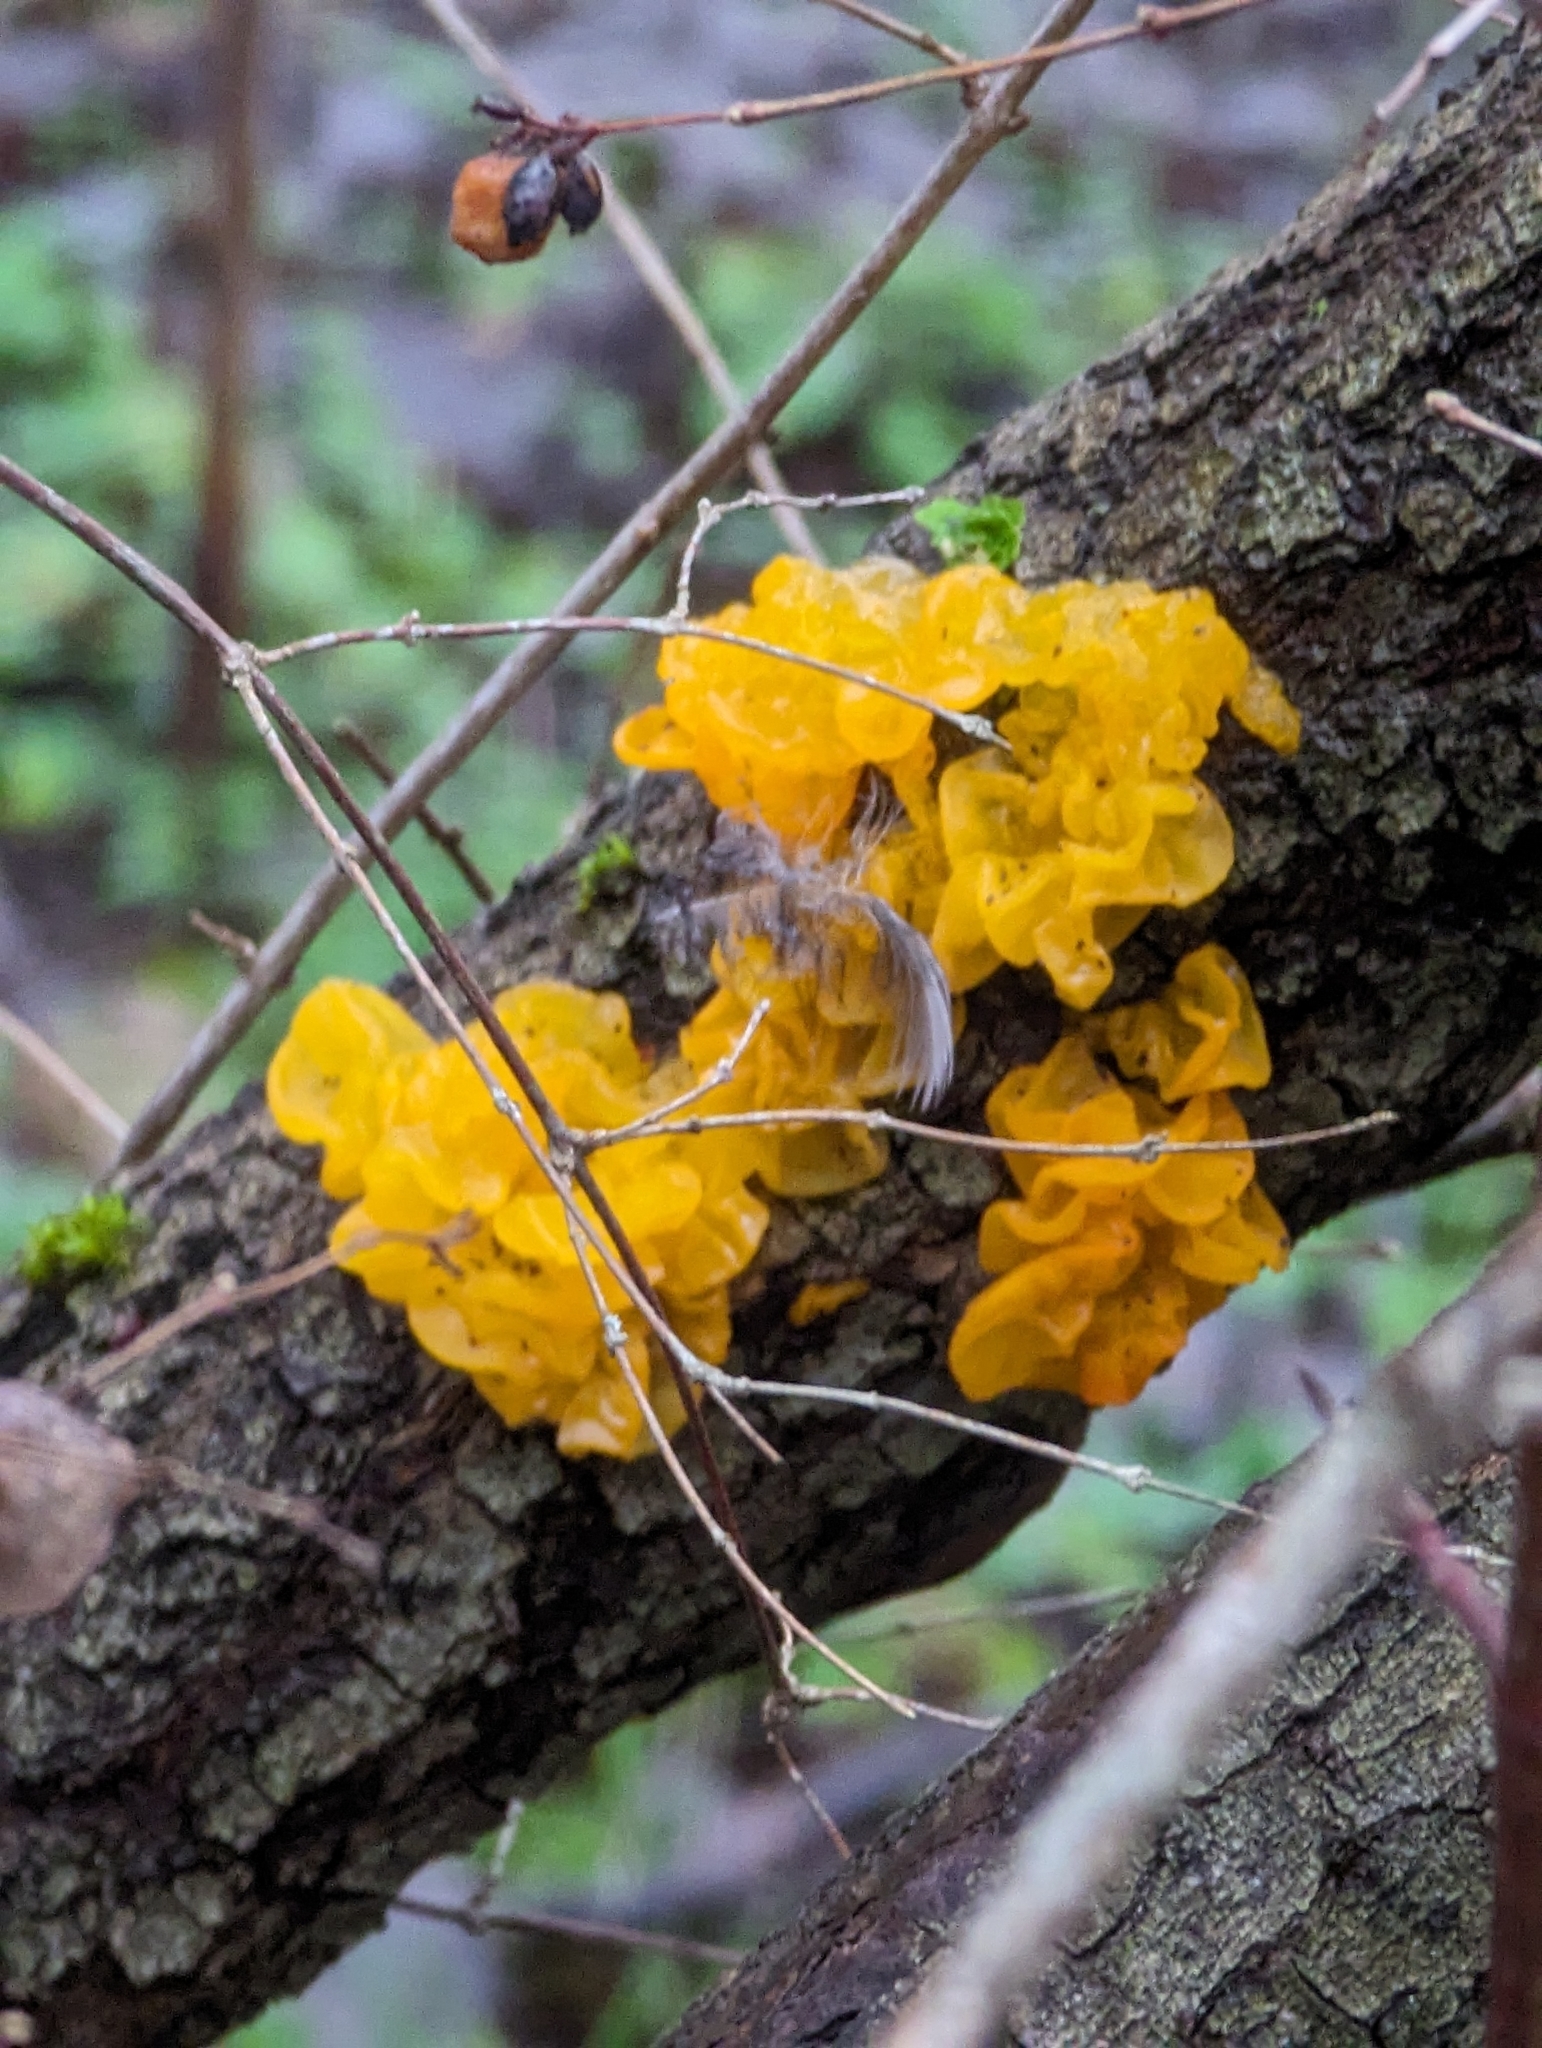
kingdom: Fungi
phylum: Basidiomycota
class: Tremellomycetes
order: Tremellales
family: Tremellaceae
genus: Tremella
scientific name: Tremella mesenterica
